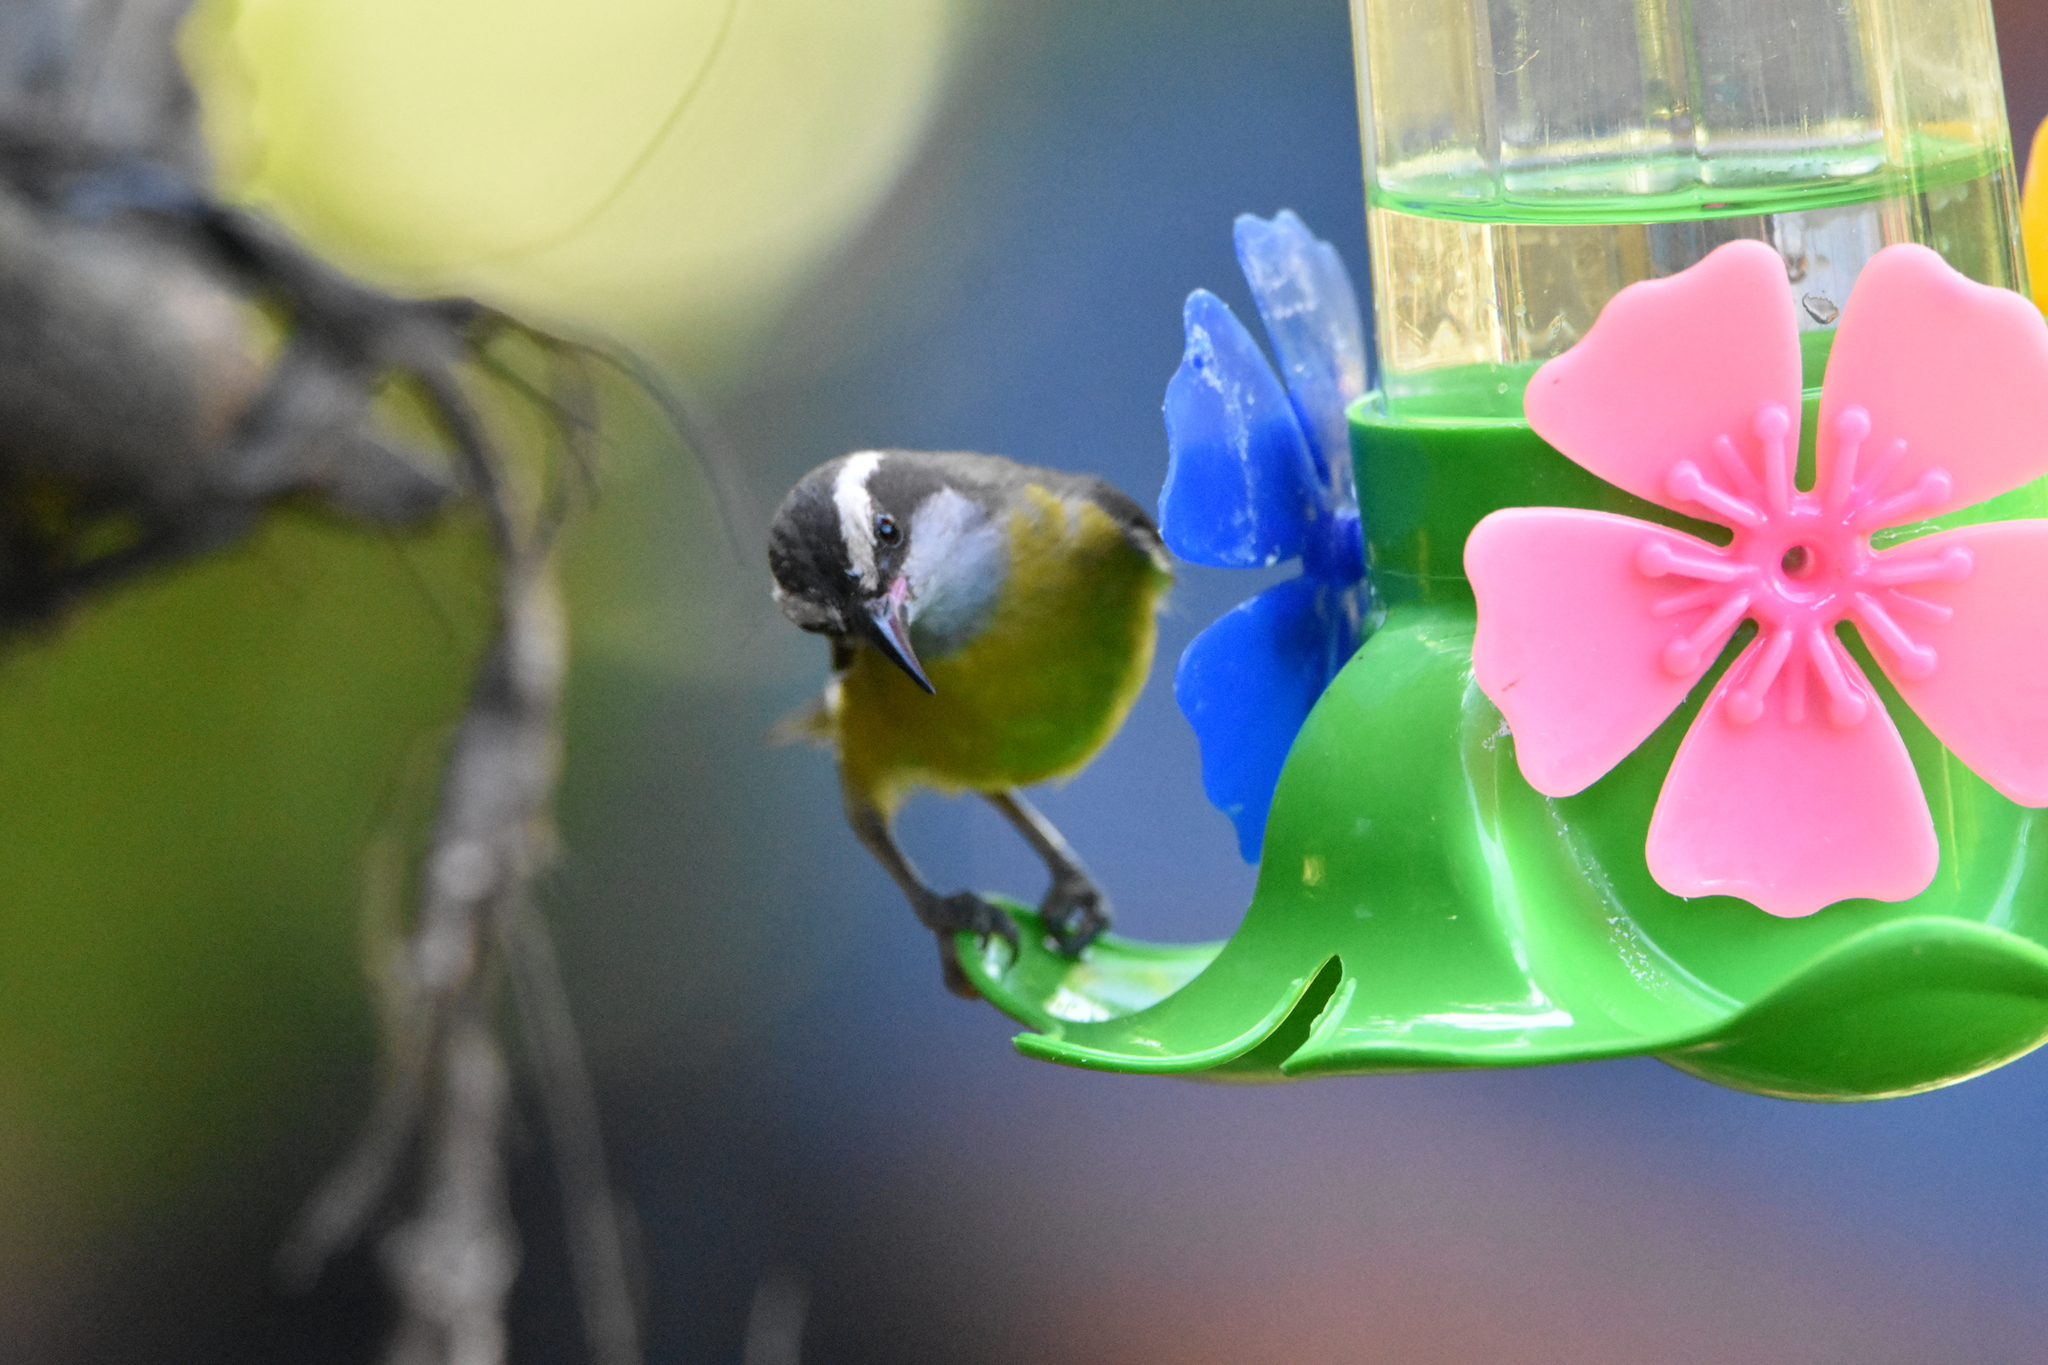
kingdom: Animalia
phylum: Chordata
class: Aves
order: Passeriformes
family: Thraupidae
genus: Coereba
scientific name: Coereba flaveola
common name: Bananaquit
